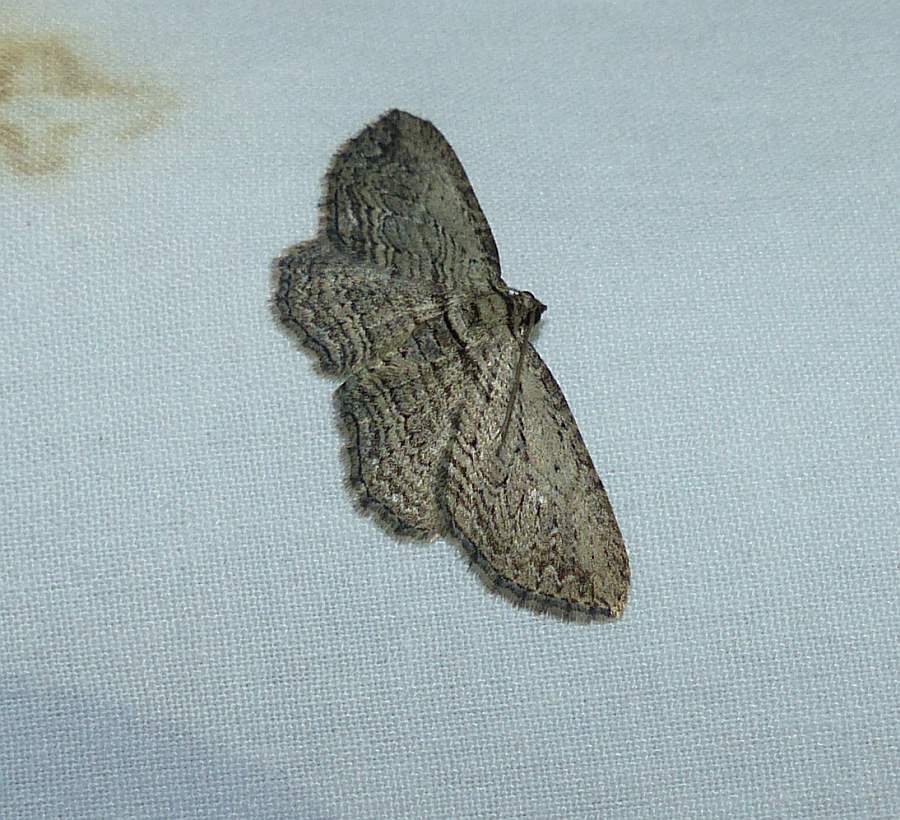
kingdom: Animalia
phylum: Arthropoda
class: Insecta
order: Lepidoptera
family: Geometridae
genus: Horisme
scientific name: Horisme intestinata
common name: Brown bark carpet
